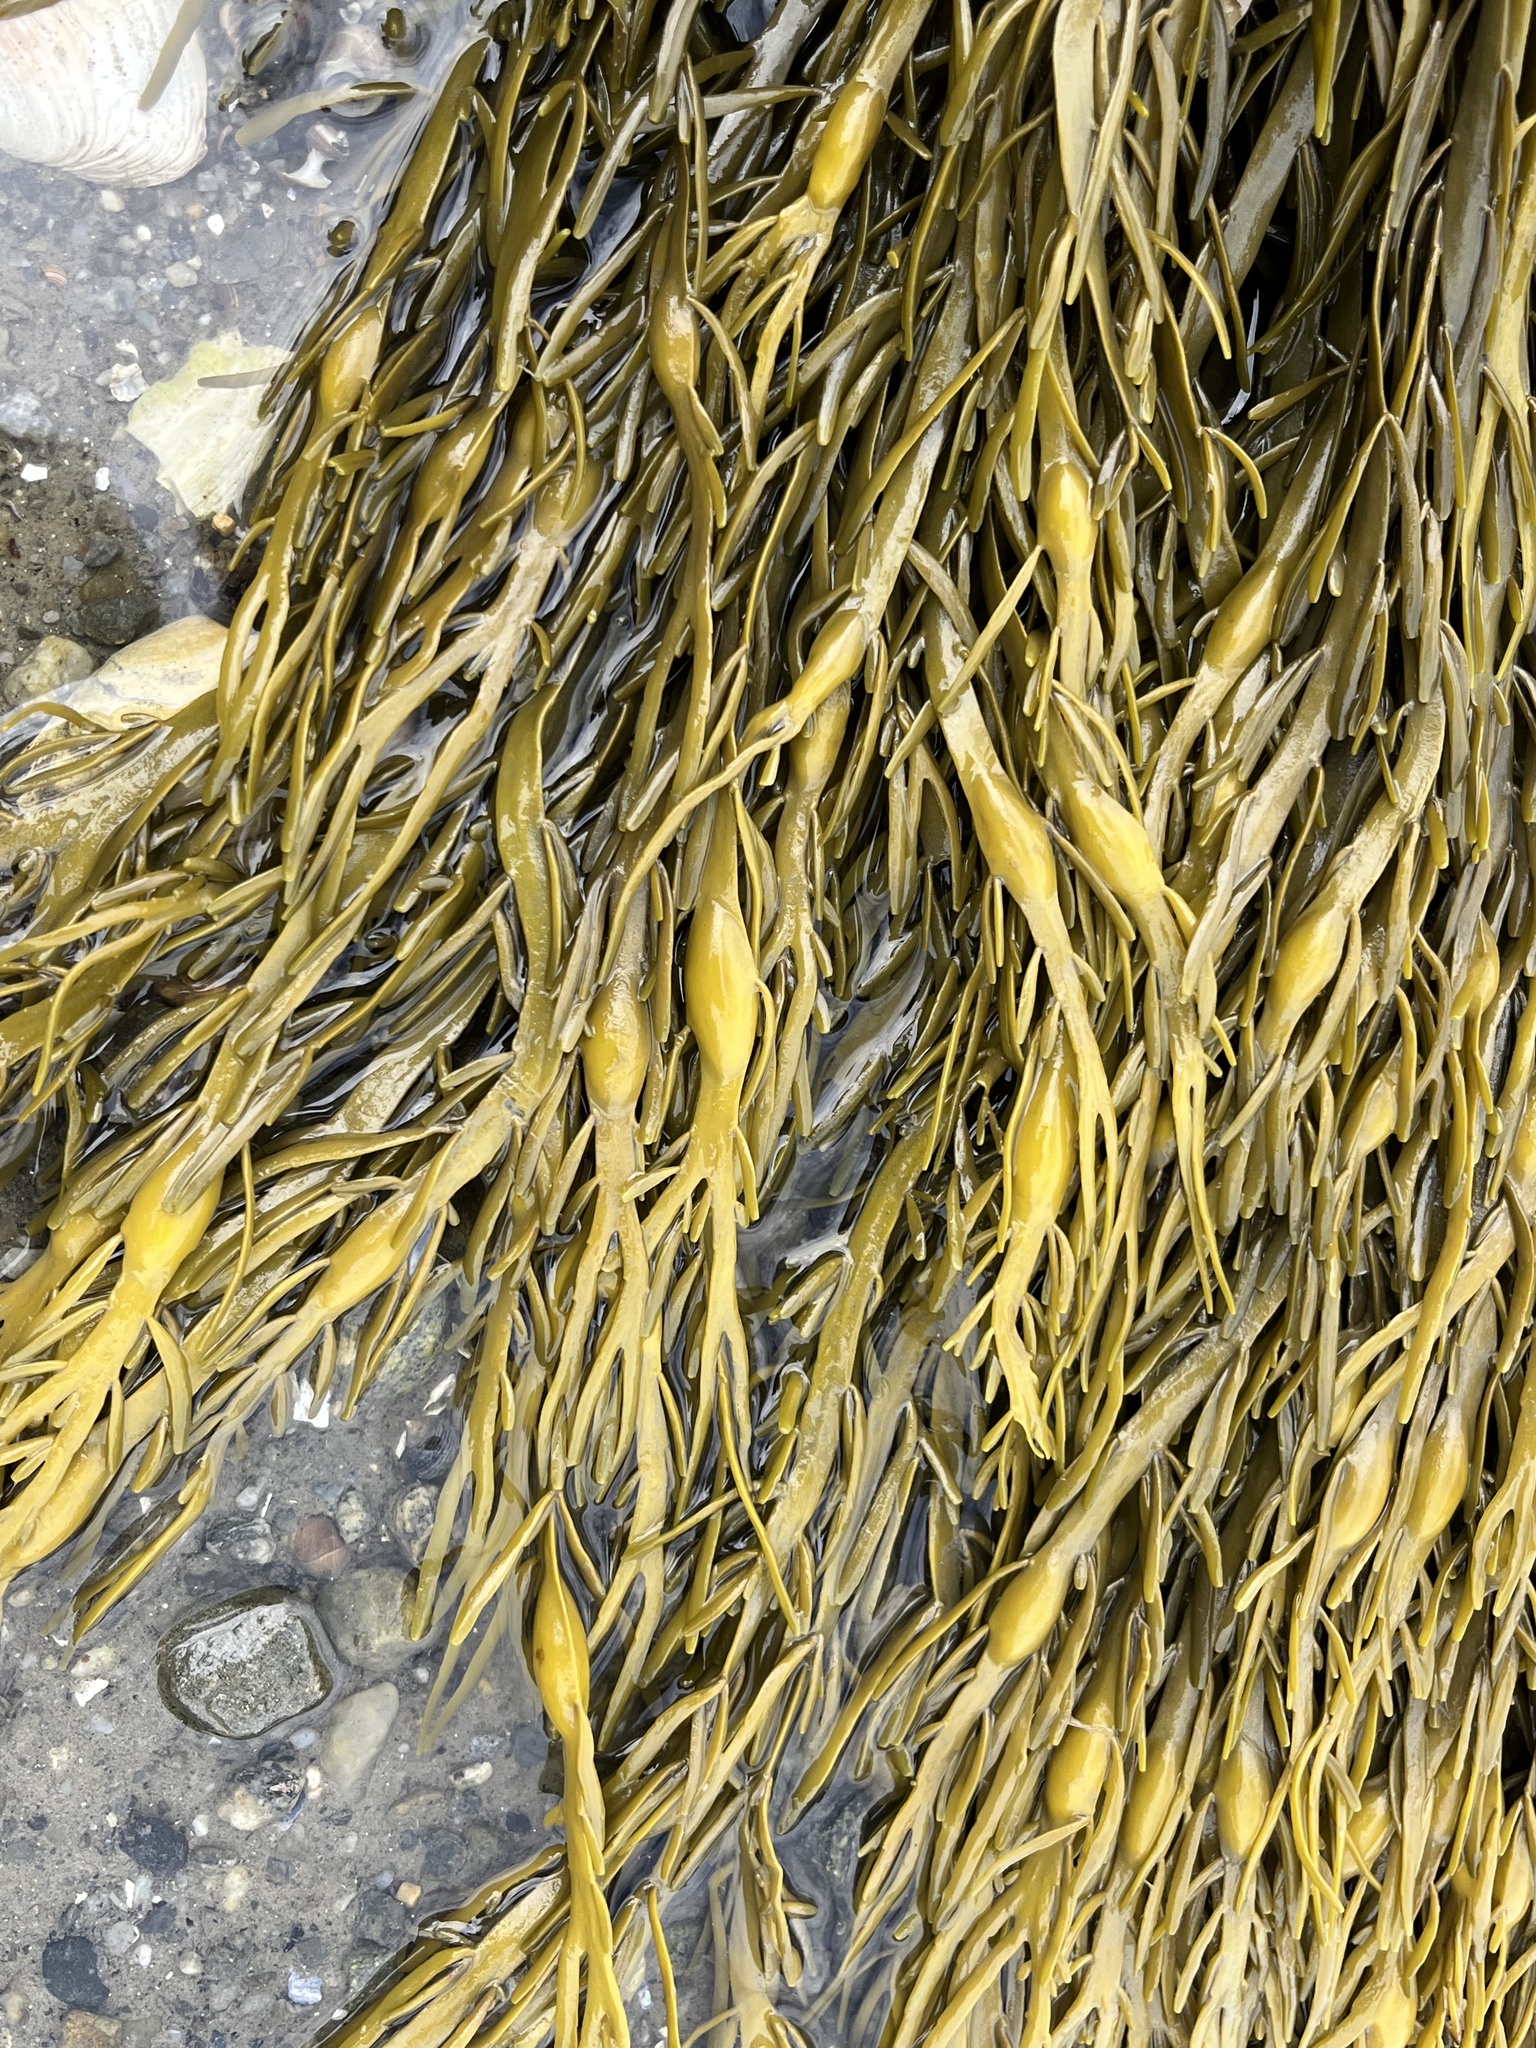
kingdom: Chromista
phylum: Ochrophyta
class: Phaeophyceae
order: Fucales
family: Fucaceae
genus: Ascophyllum
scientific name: Ascophyllum nodosum
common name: Knotted wrack
